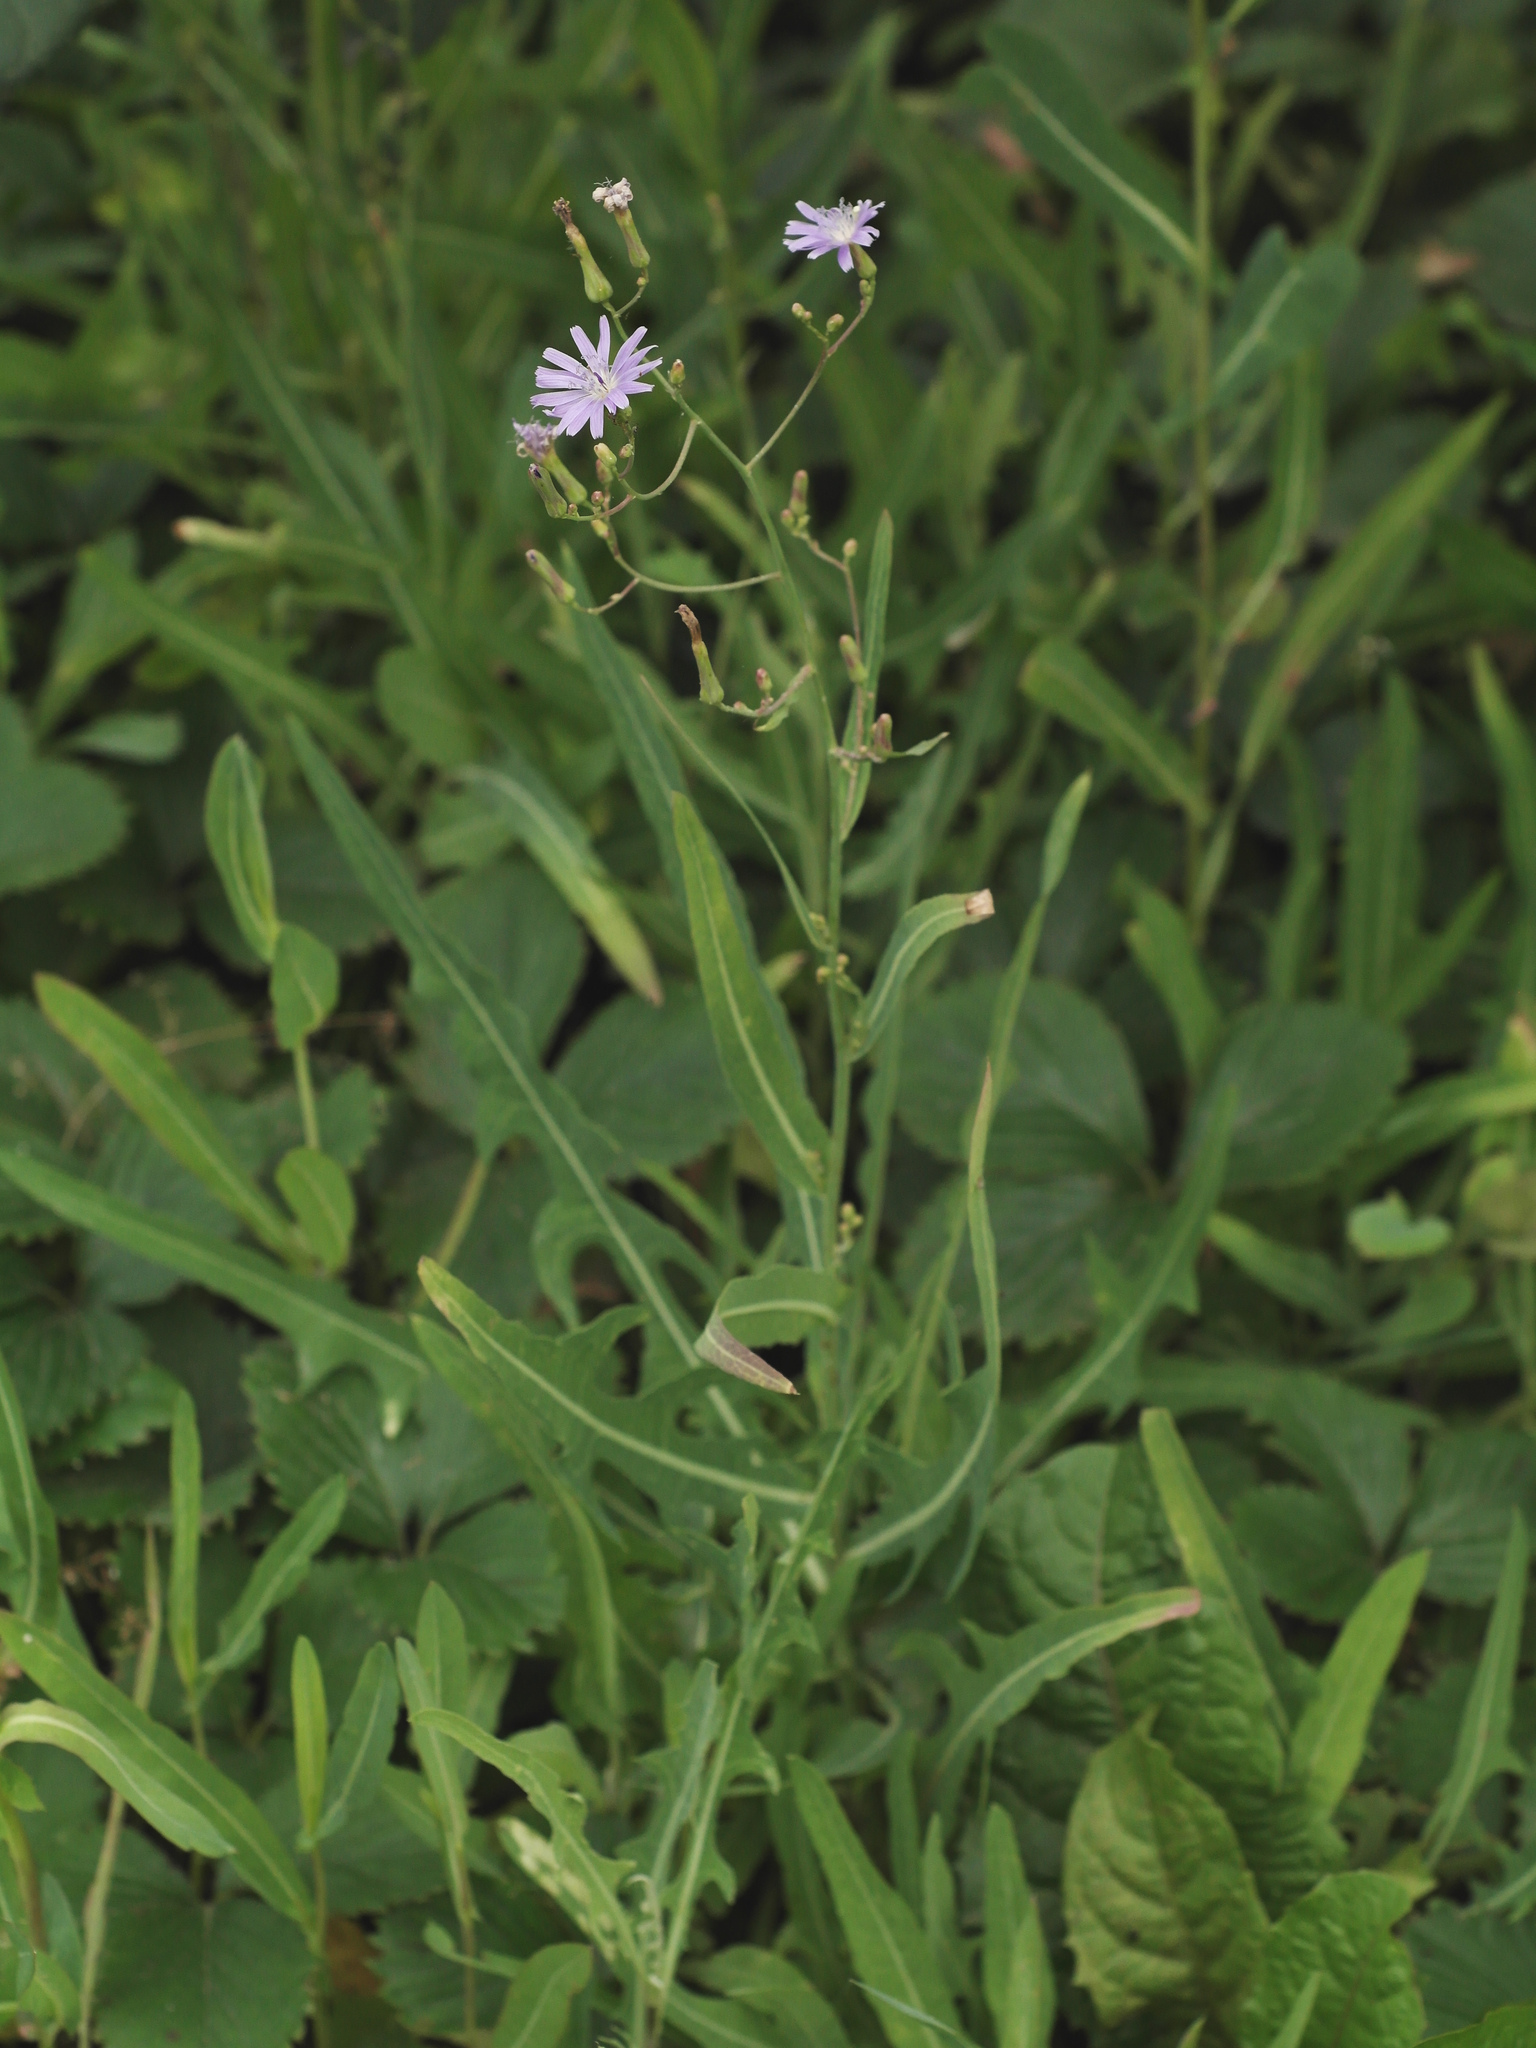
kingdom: Plantae
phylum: Tracheophyta
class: Magnoliopsida
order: Asterales
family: Asteraceae
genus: Lactuca
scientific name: Lactuca tatarica
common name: Blue lettuce
